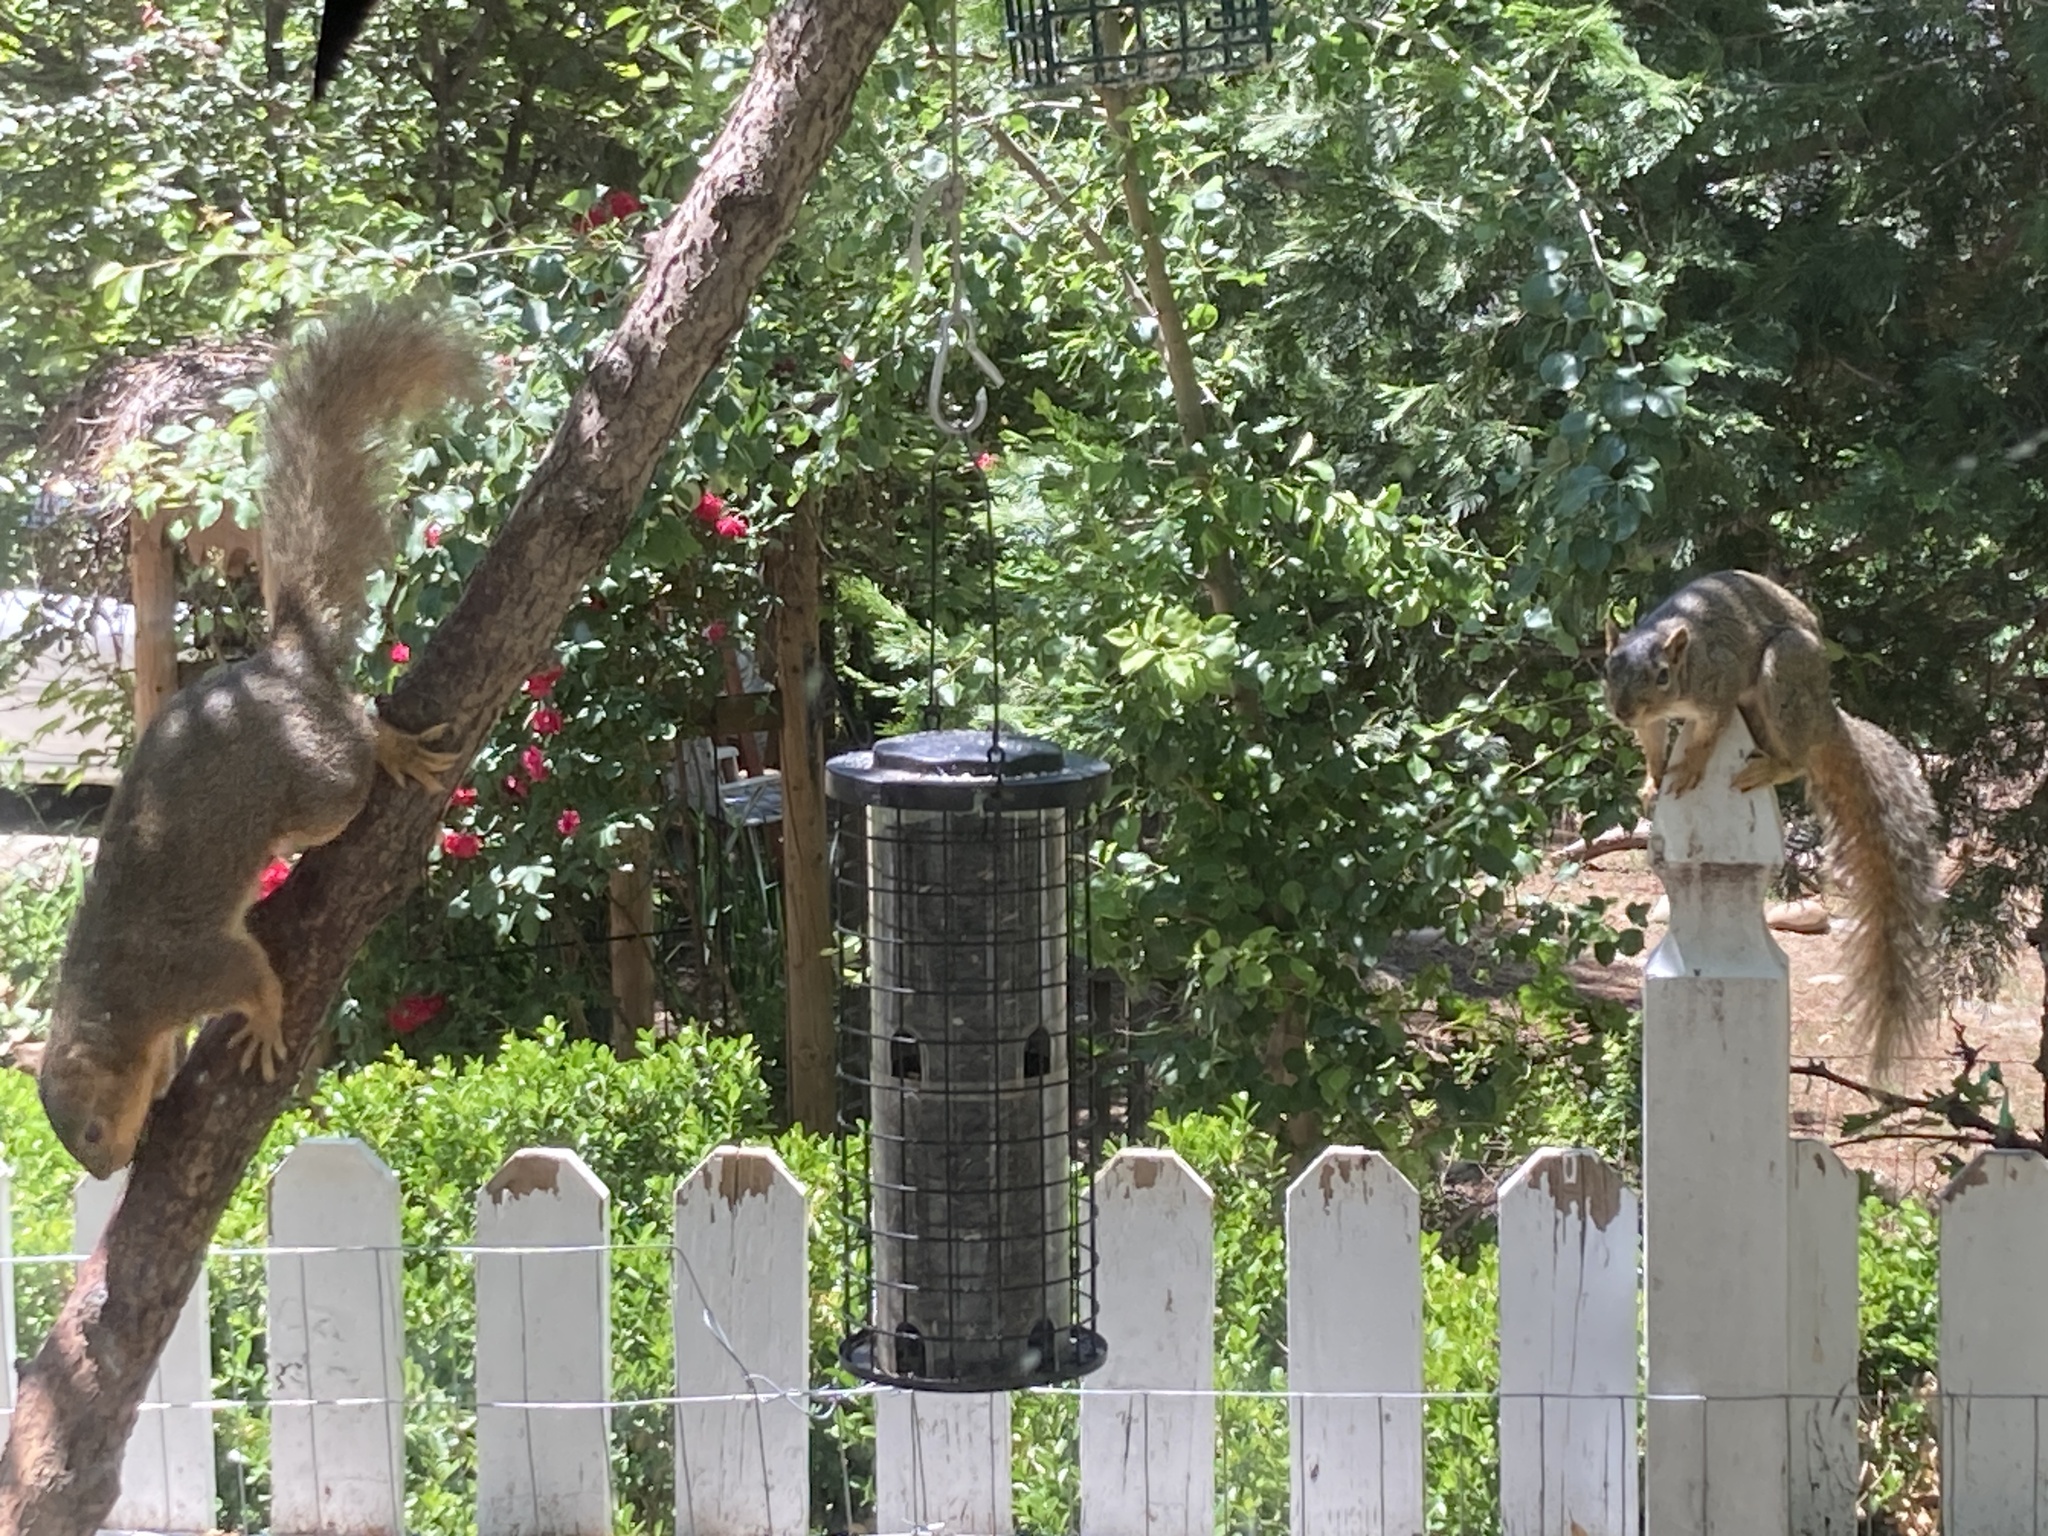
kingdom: Animalia
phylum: Chordata
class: Mammalia
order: Rodentia
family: Sciuridae
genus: Sciurus
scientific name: Sciurus niger
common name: Fox squirrel
